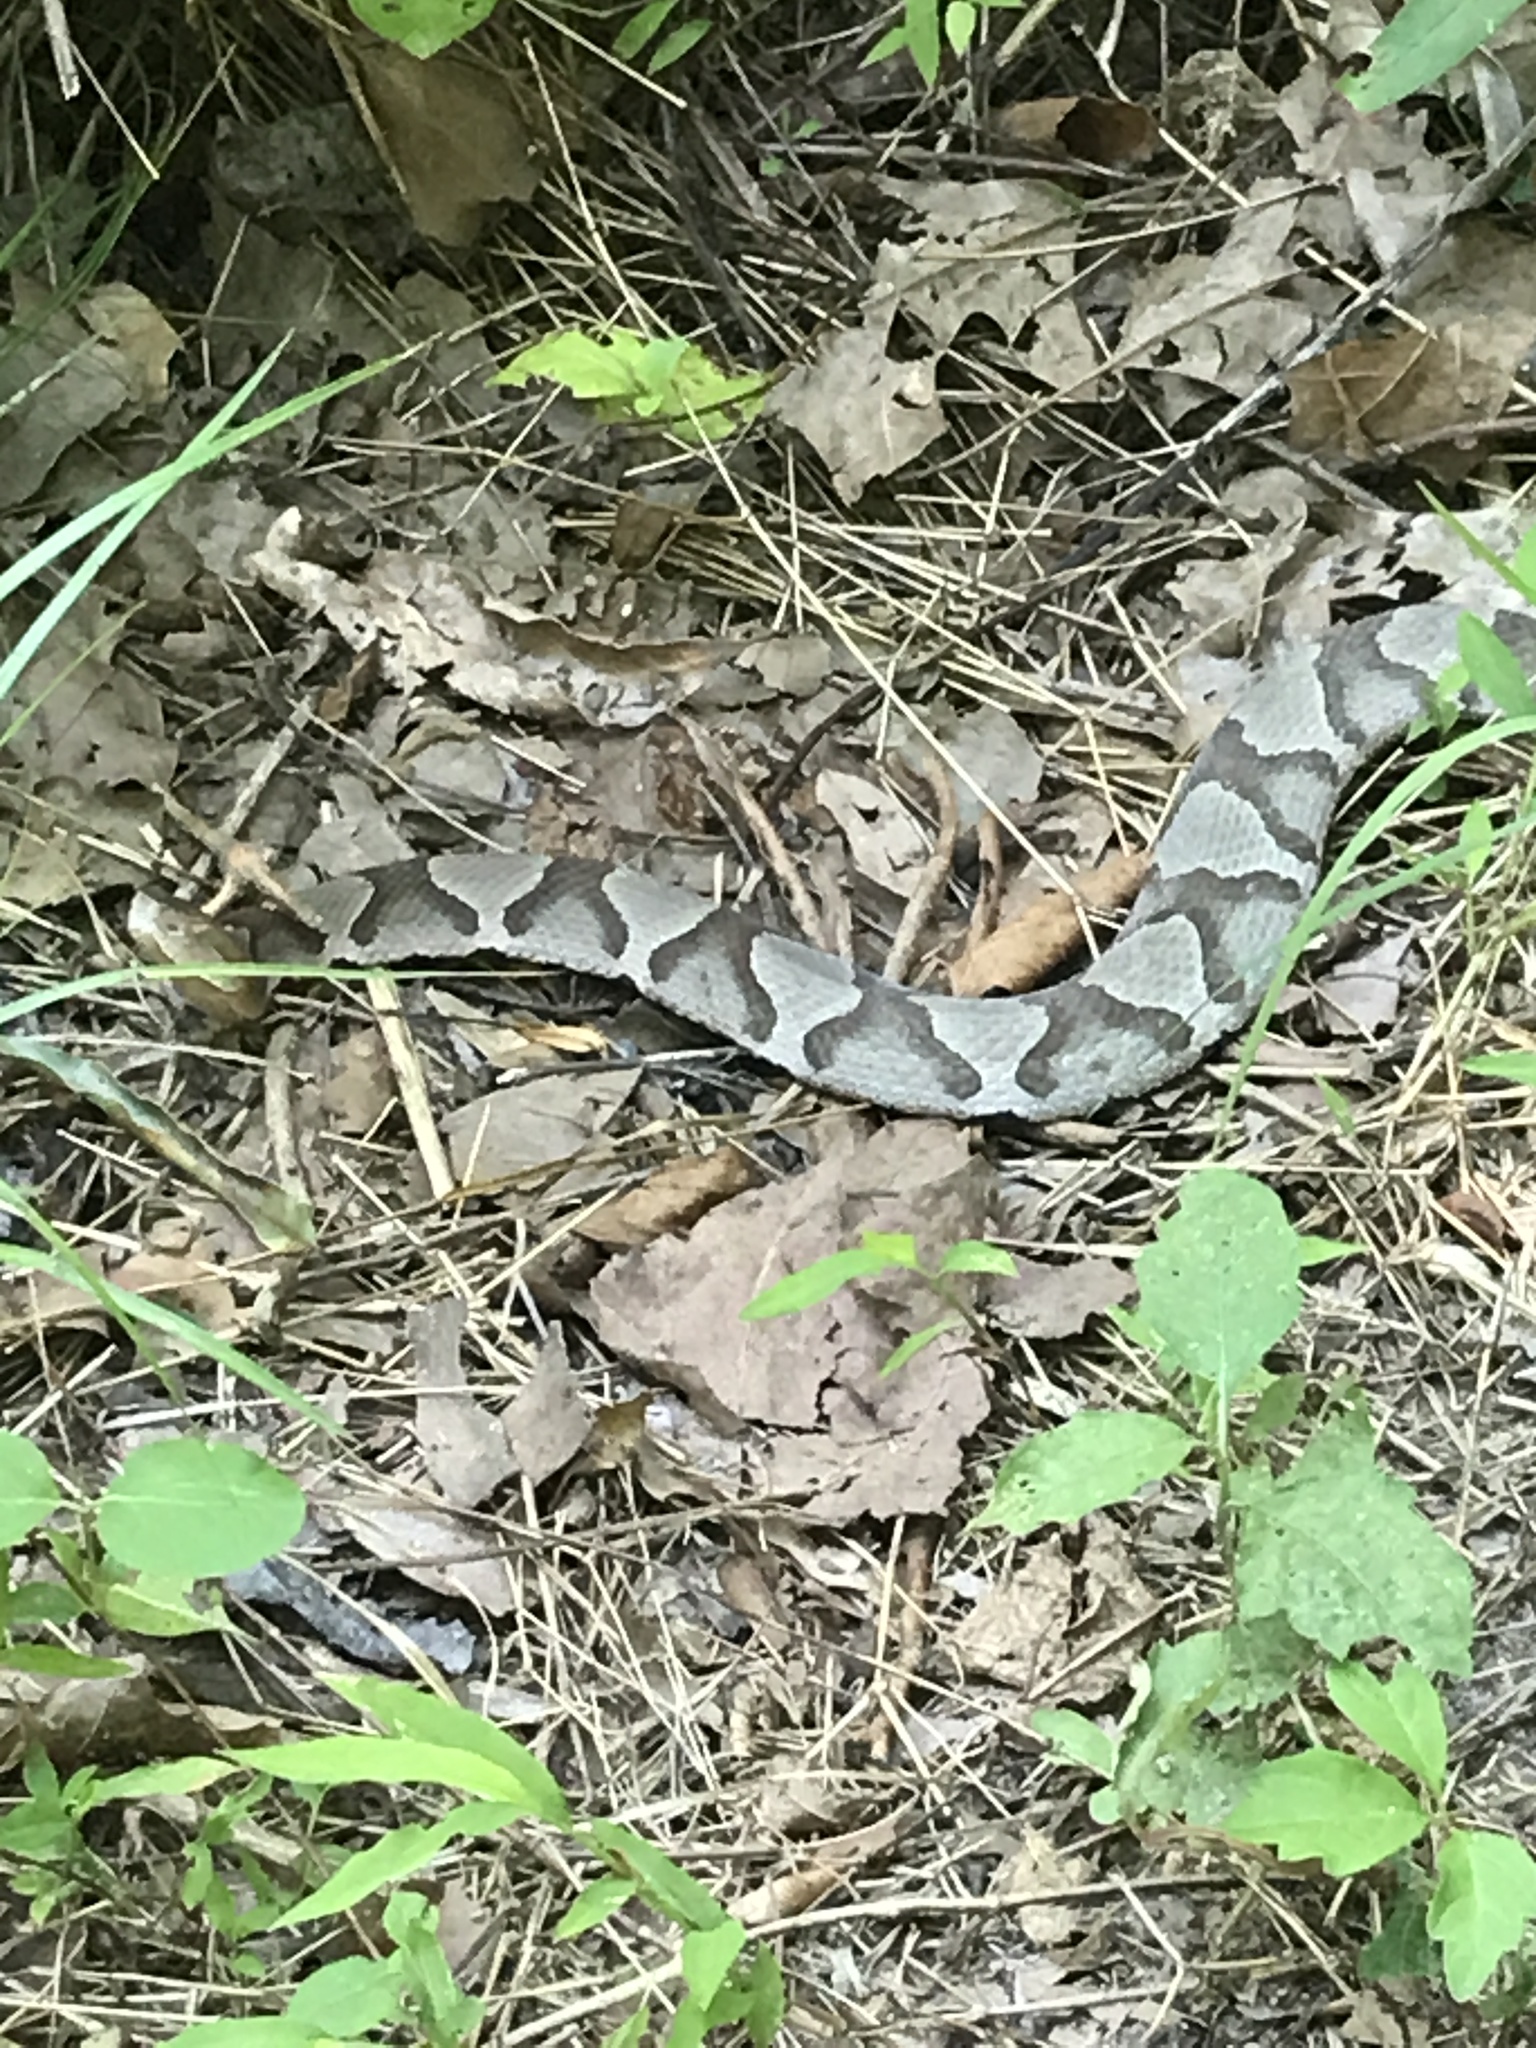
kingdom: Animalia
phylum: Chordata
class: Squamata
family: Viperidae
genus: Agkistrodon
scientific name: Agkistrodon contortrix
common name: Northern copperhead
